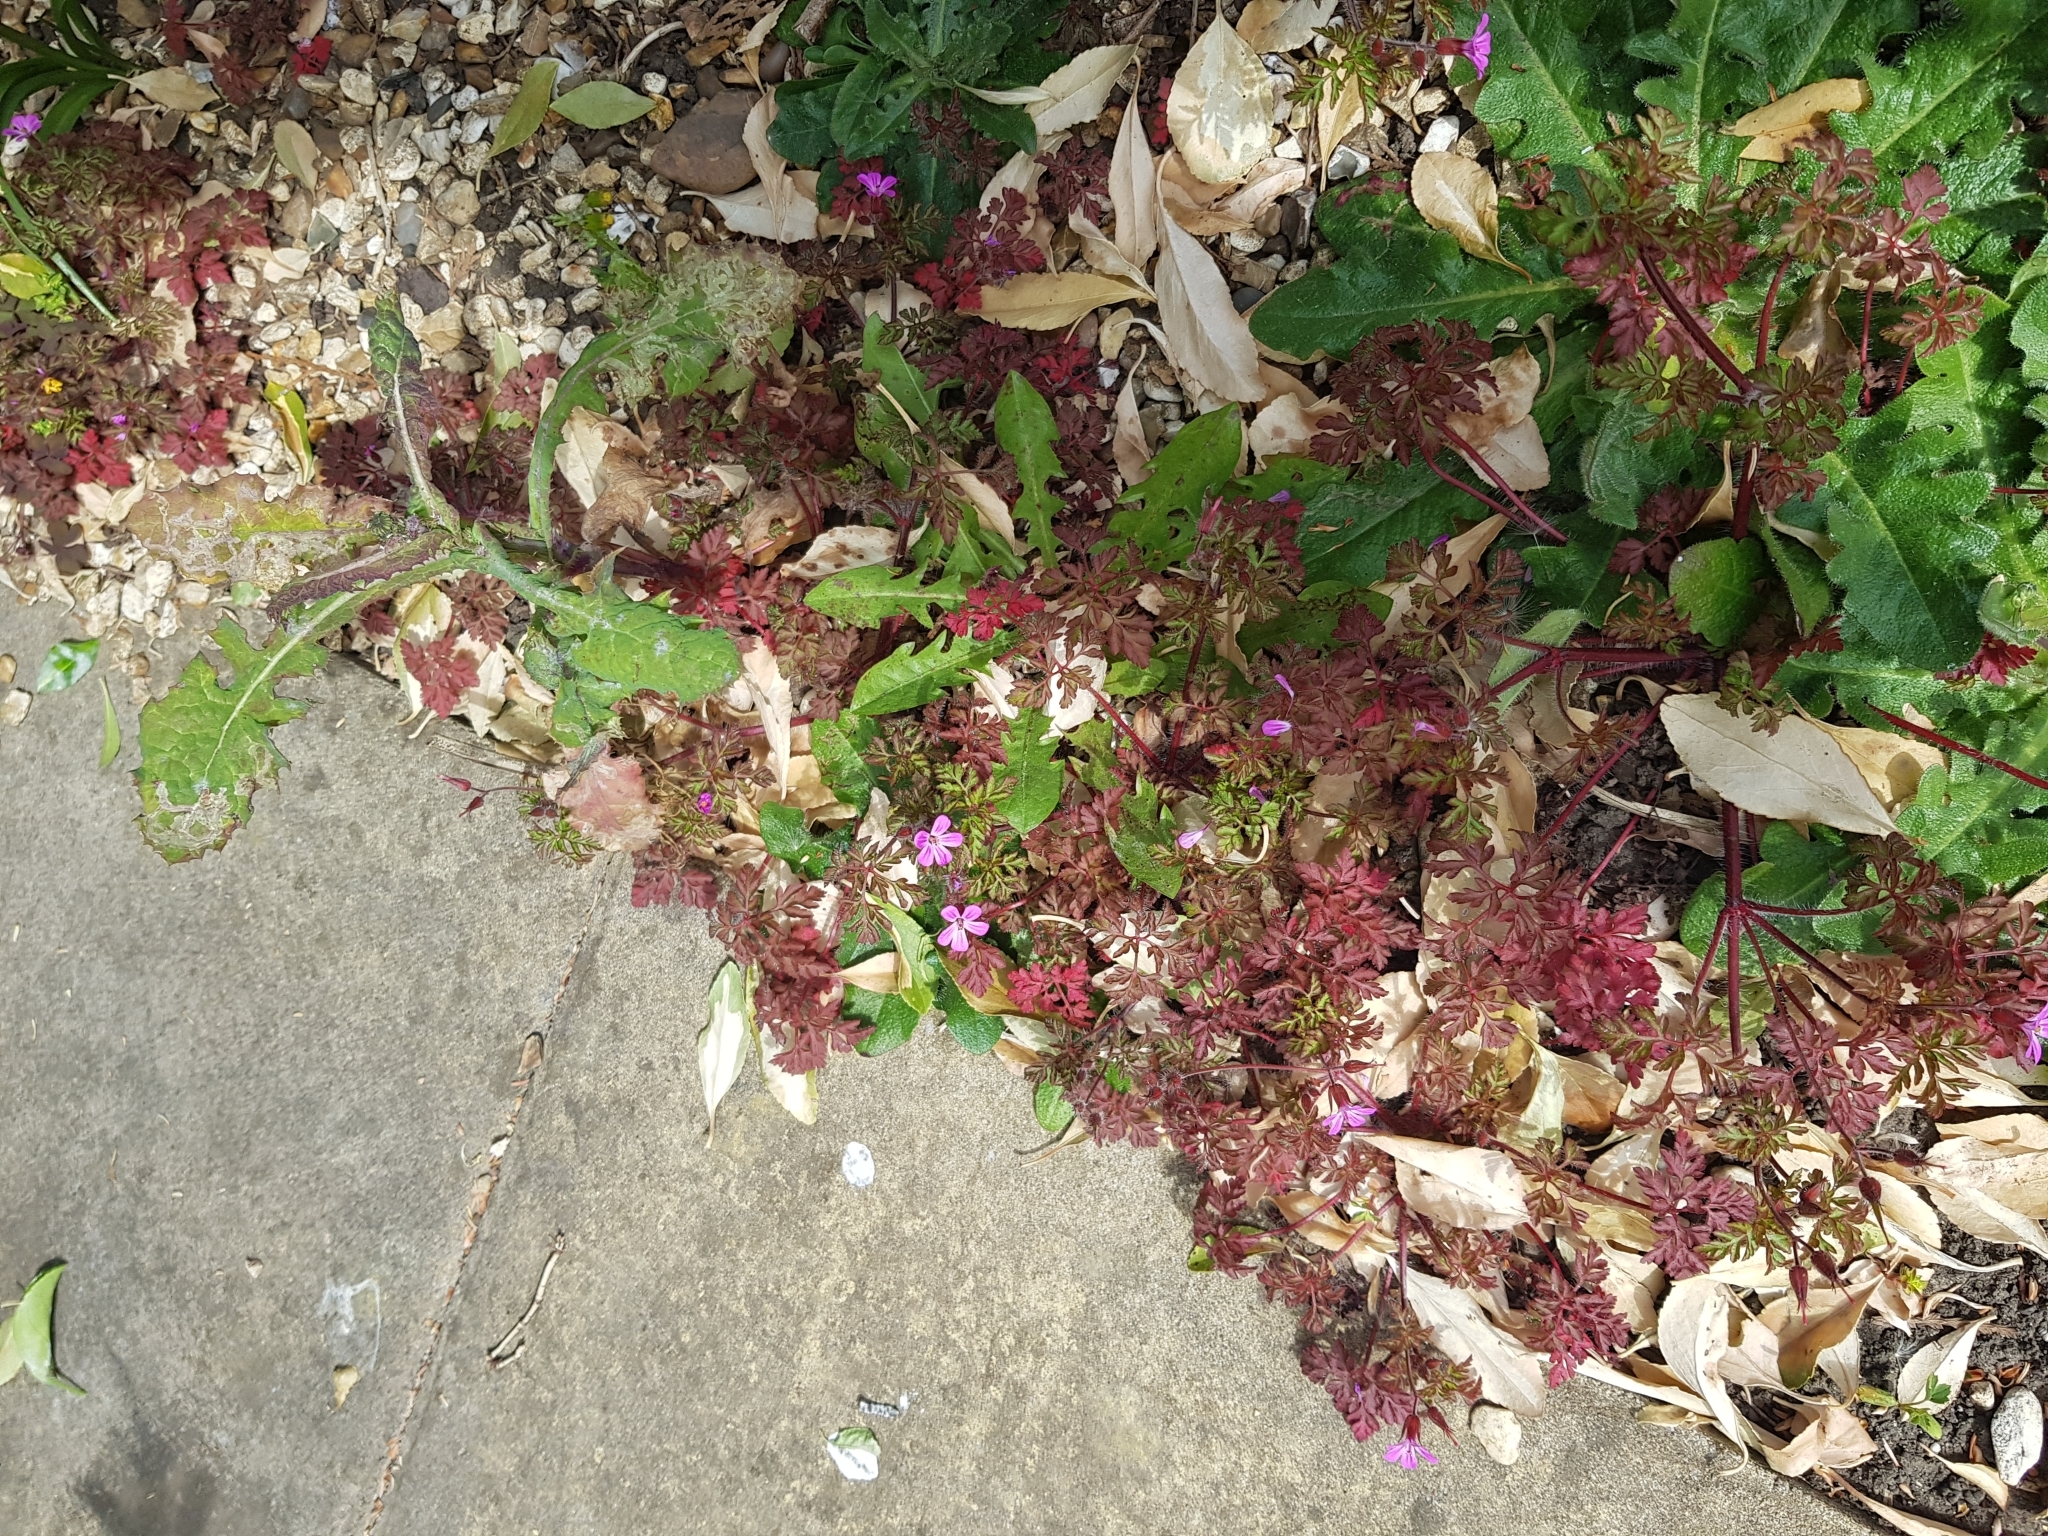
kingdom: Plantae
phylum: Tracheophyta
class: Magnoliopsida
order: Geraniales
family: Geraniaceae
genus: Geranium
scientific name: Geranium robertianum
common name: Herb-robert
